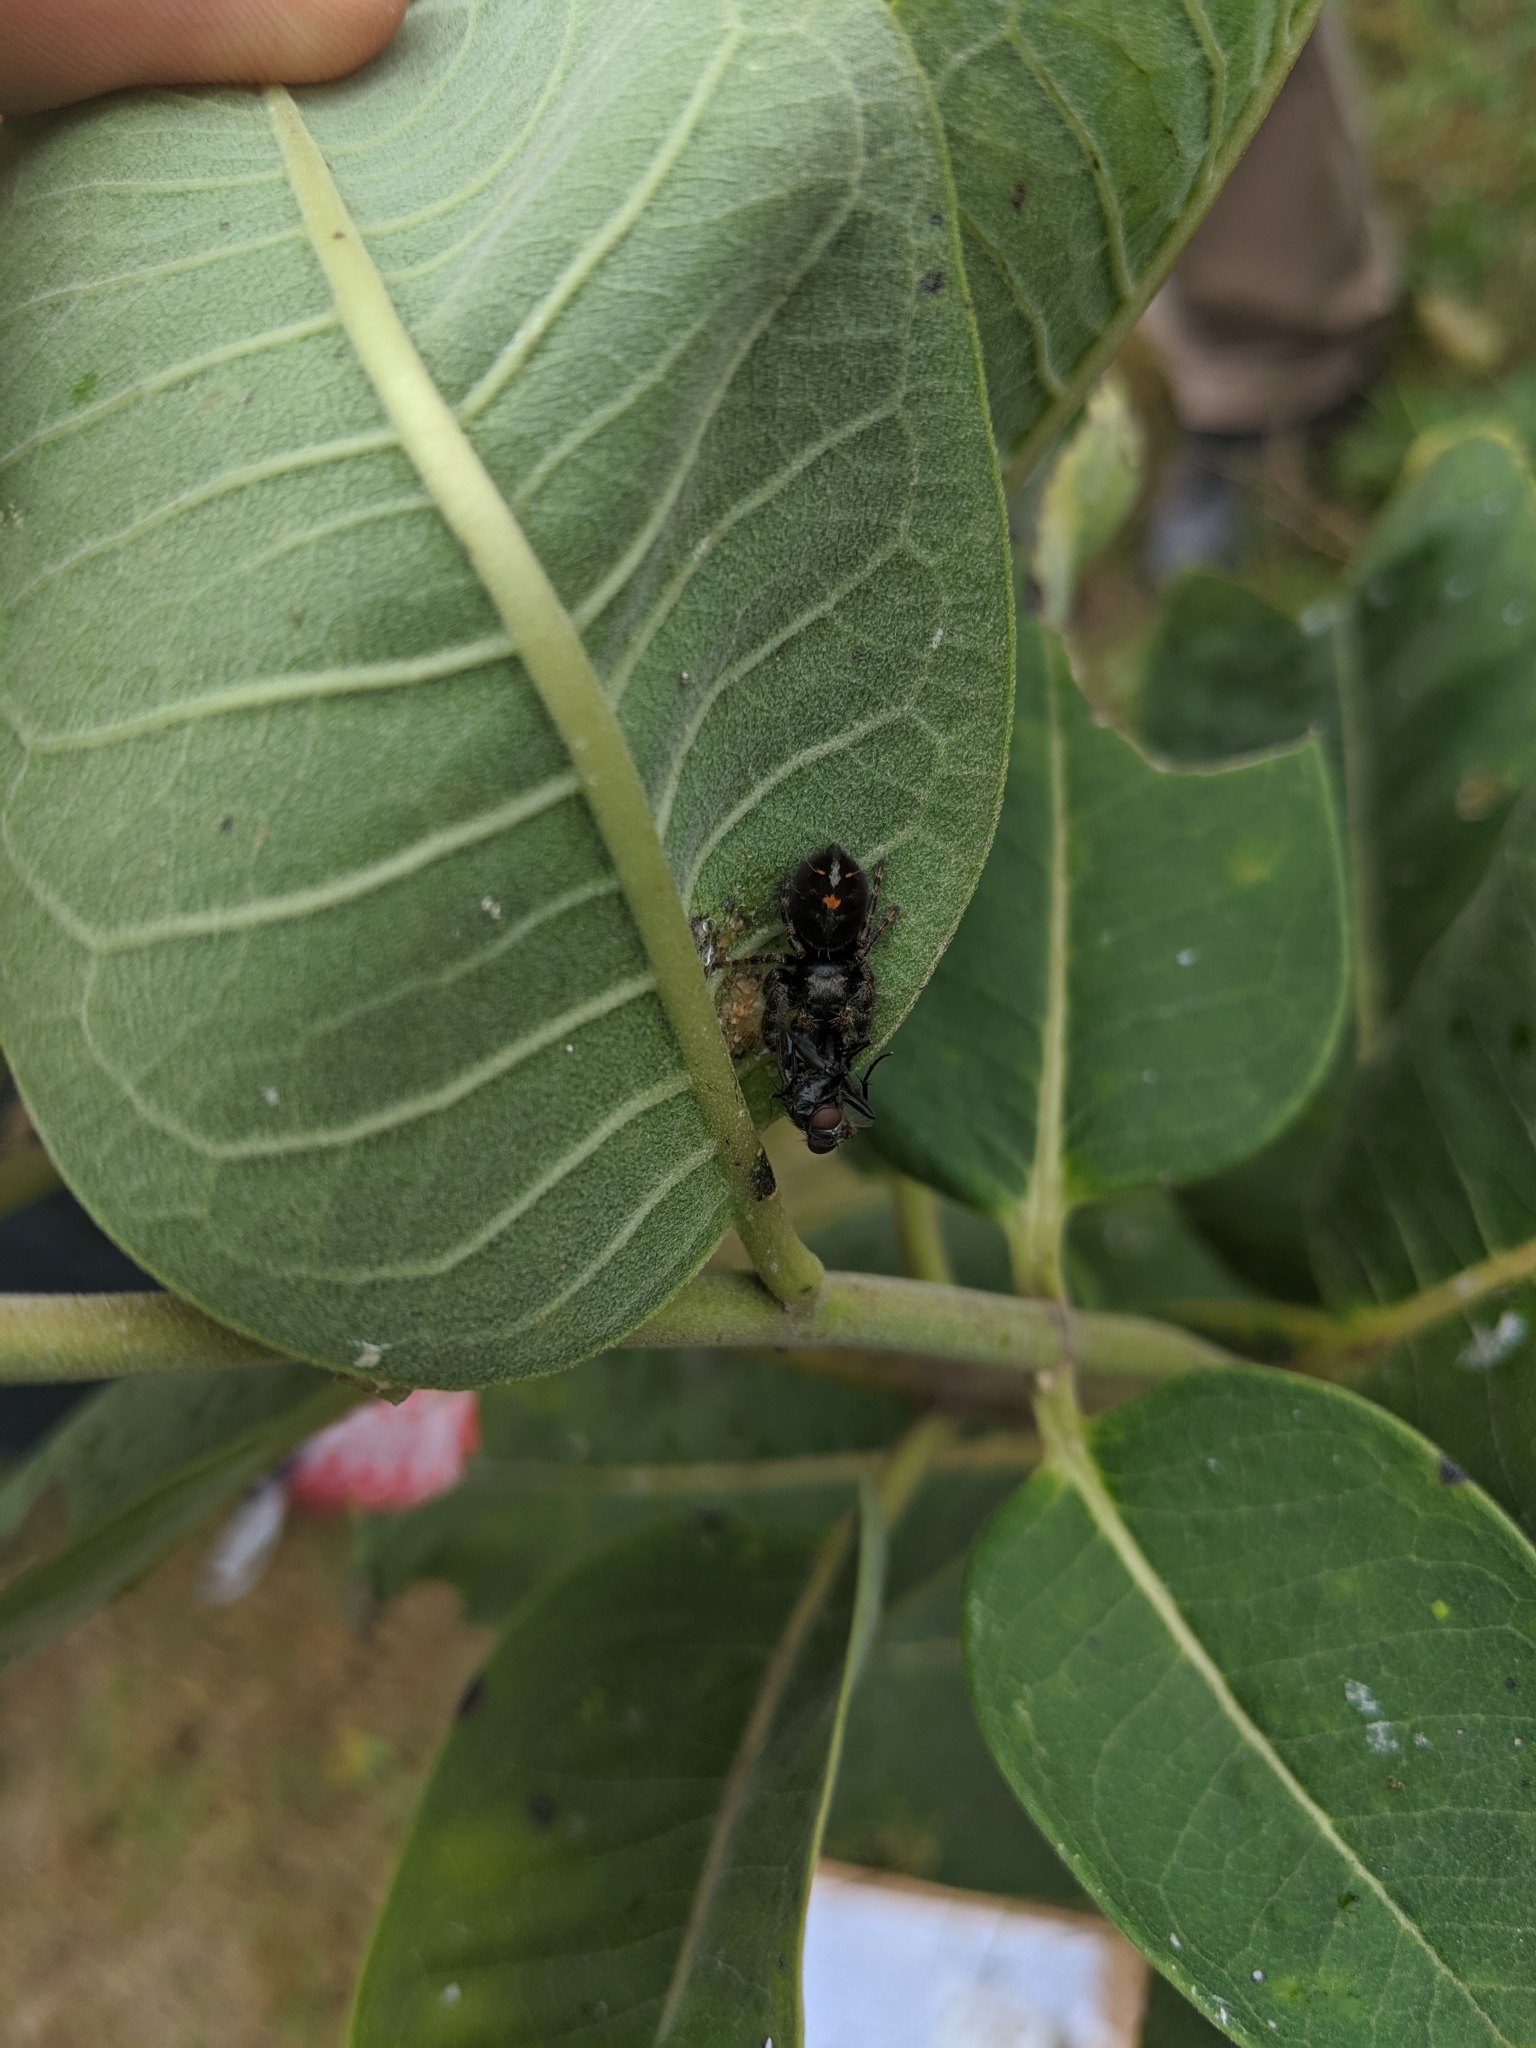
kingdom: Animalia
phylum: Arthropoda
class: Arachnida
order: Araneae
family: Salticidae
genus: Phidippus
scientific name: Phidippus audax
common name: Bold jumper
